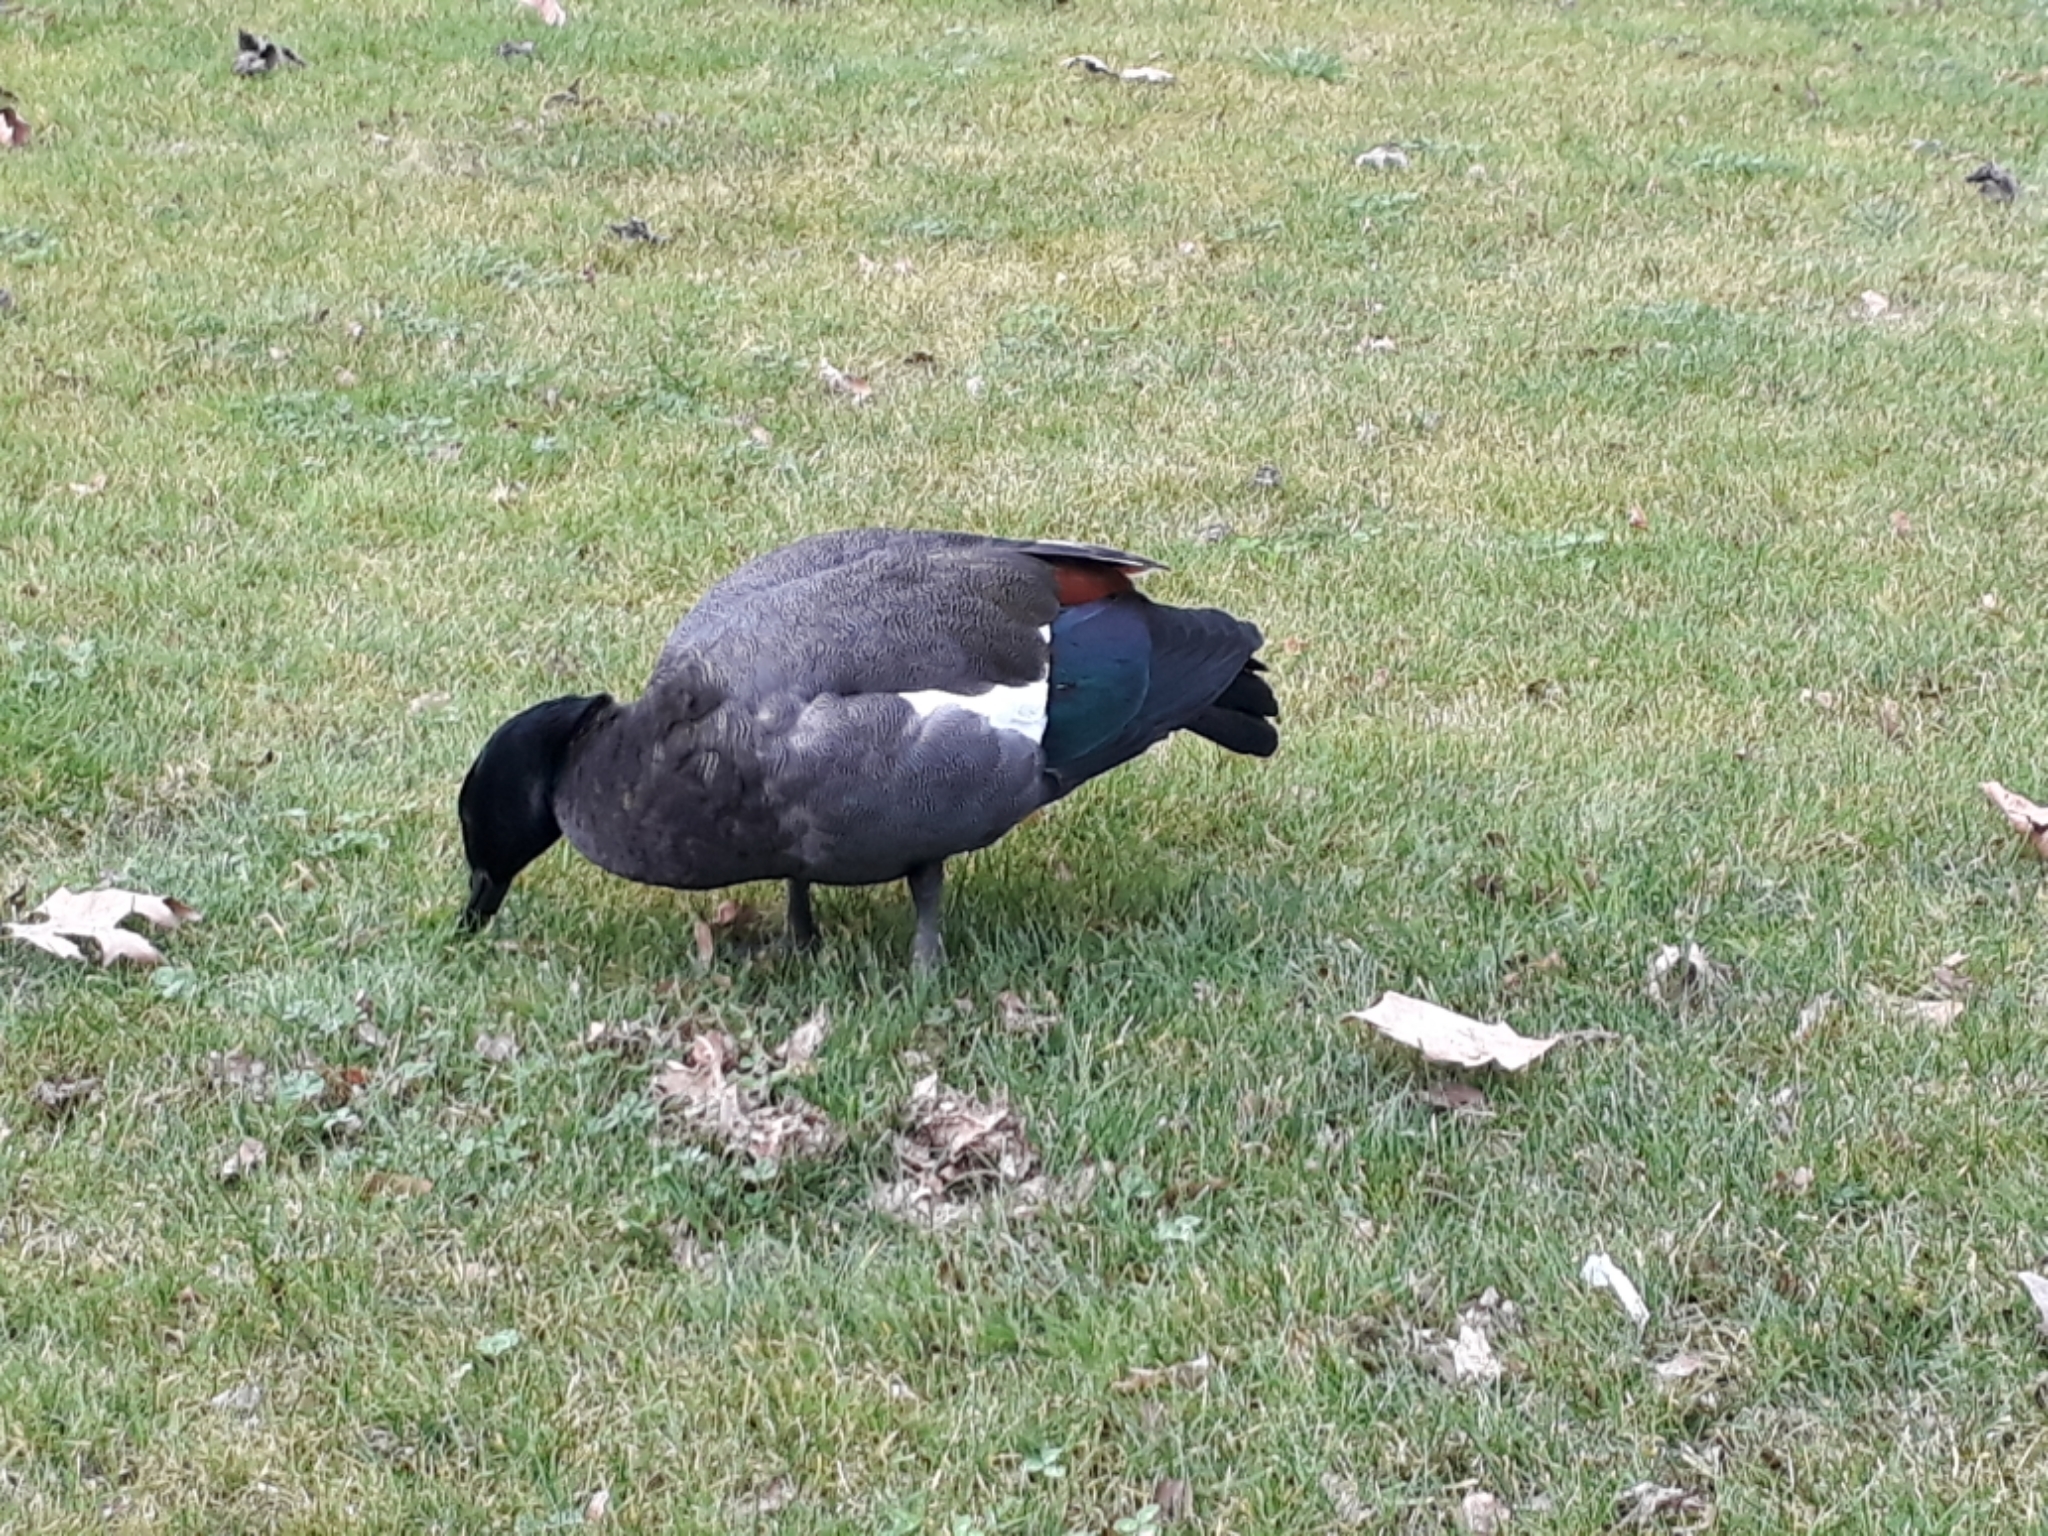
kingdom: Animalia
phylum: Chordata
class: Aves
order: Anseriformes
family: Anatidae
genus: Tadorna
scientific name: Tadorna variegata
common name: Paradise shelduck
